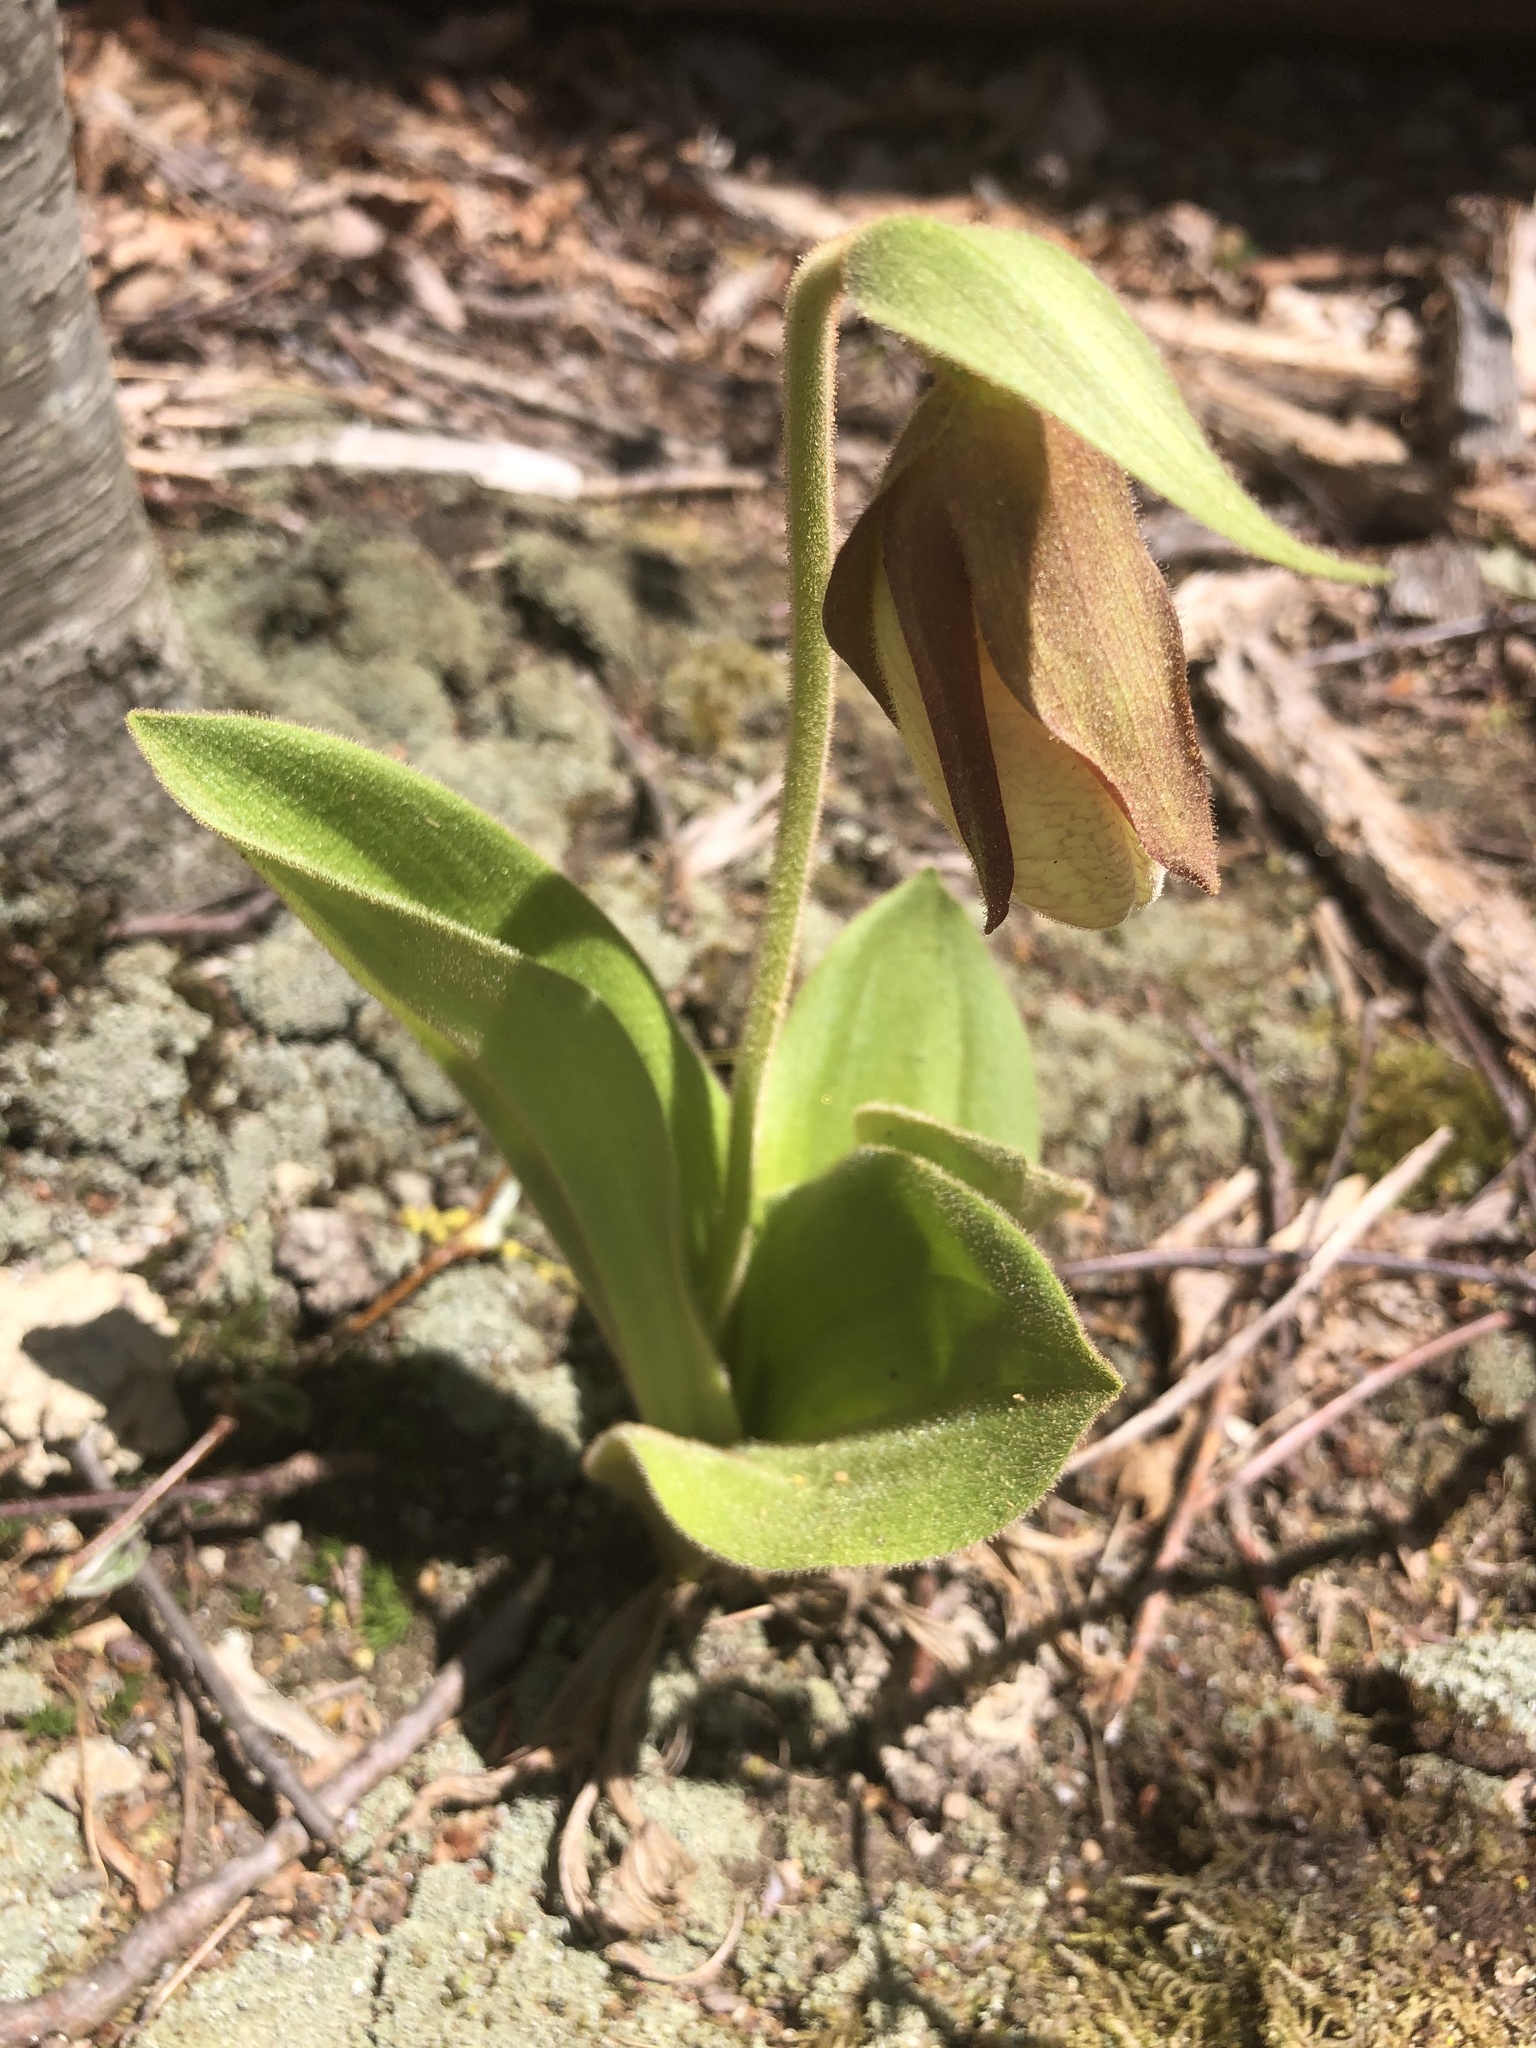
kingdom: Plantae
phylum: Tracheophyta
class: Liliopsida
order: Asparagales
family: Orchidaceae
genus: Cypripedium
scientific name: Cypripedium acaule
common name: Pink lady's-slipper
